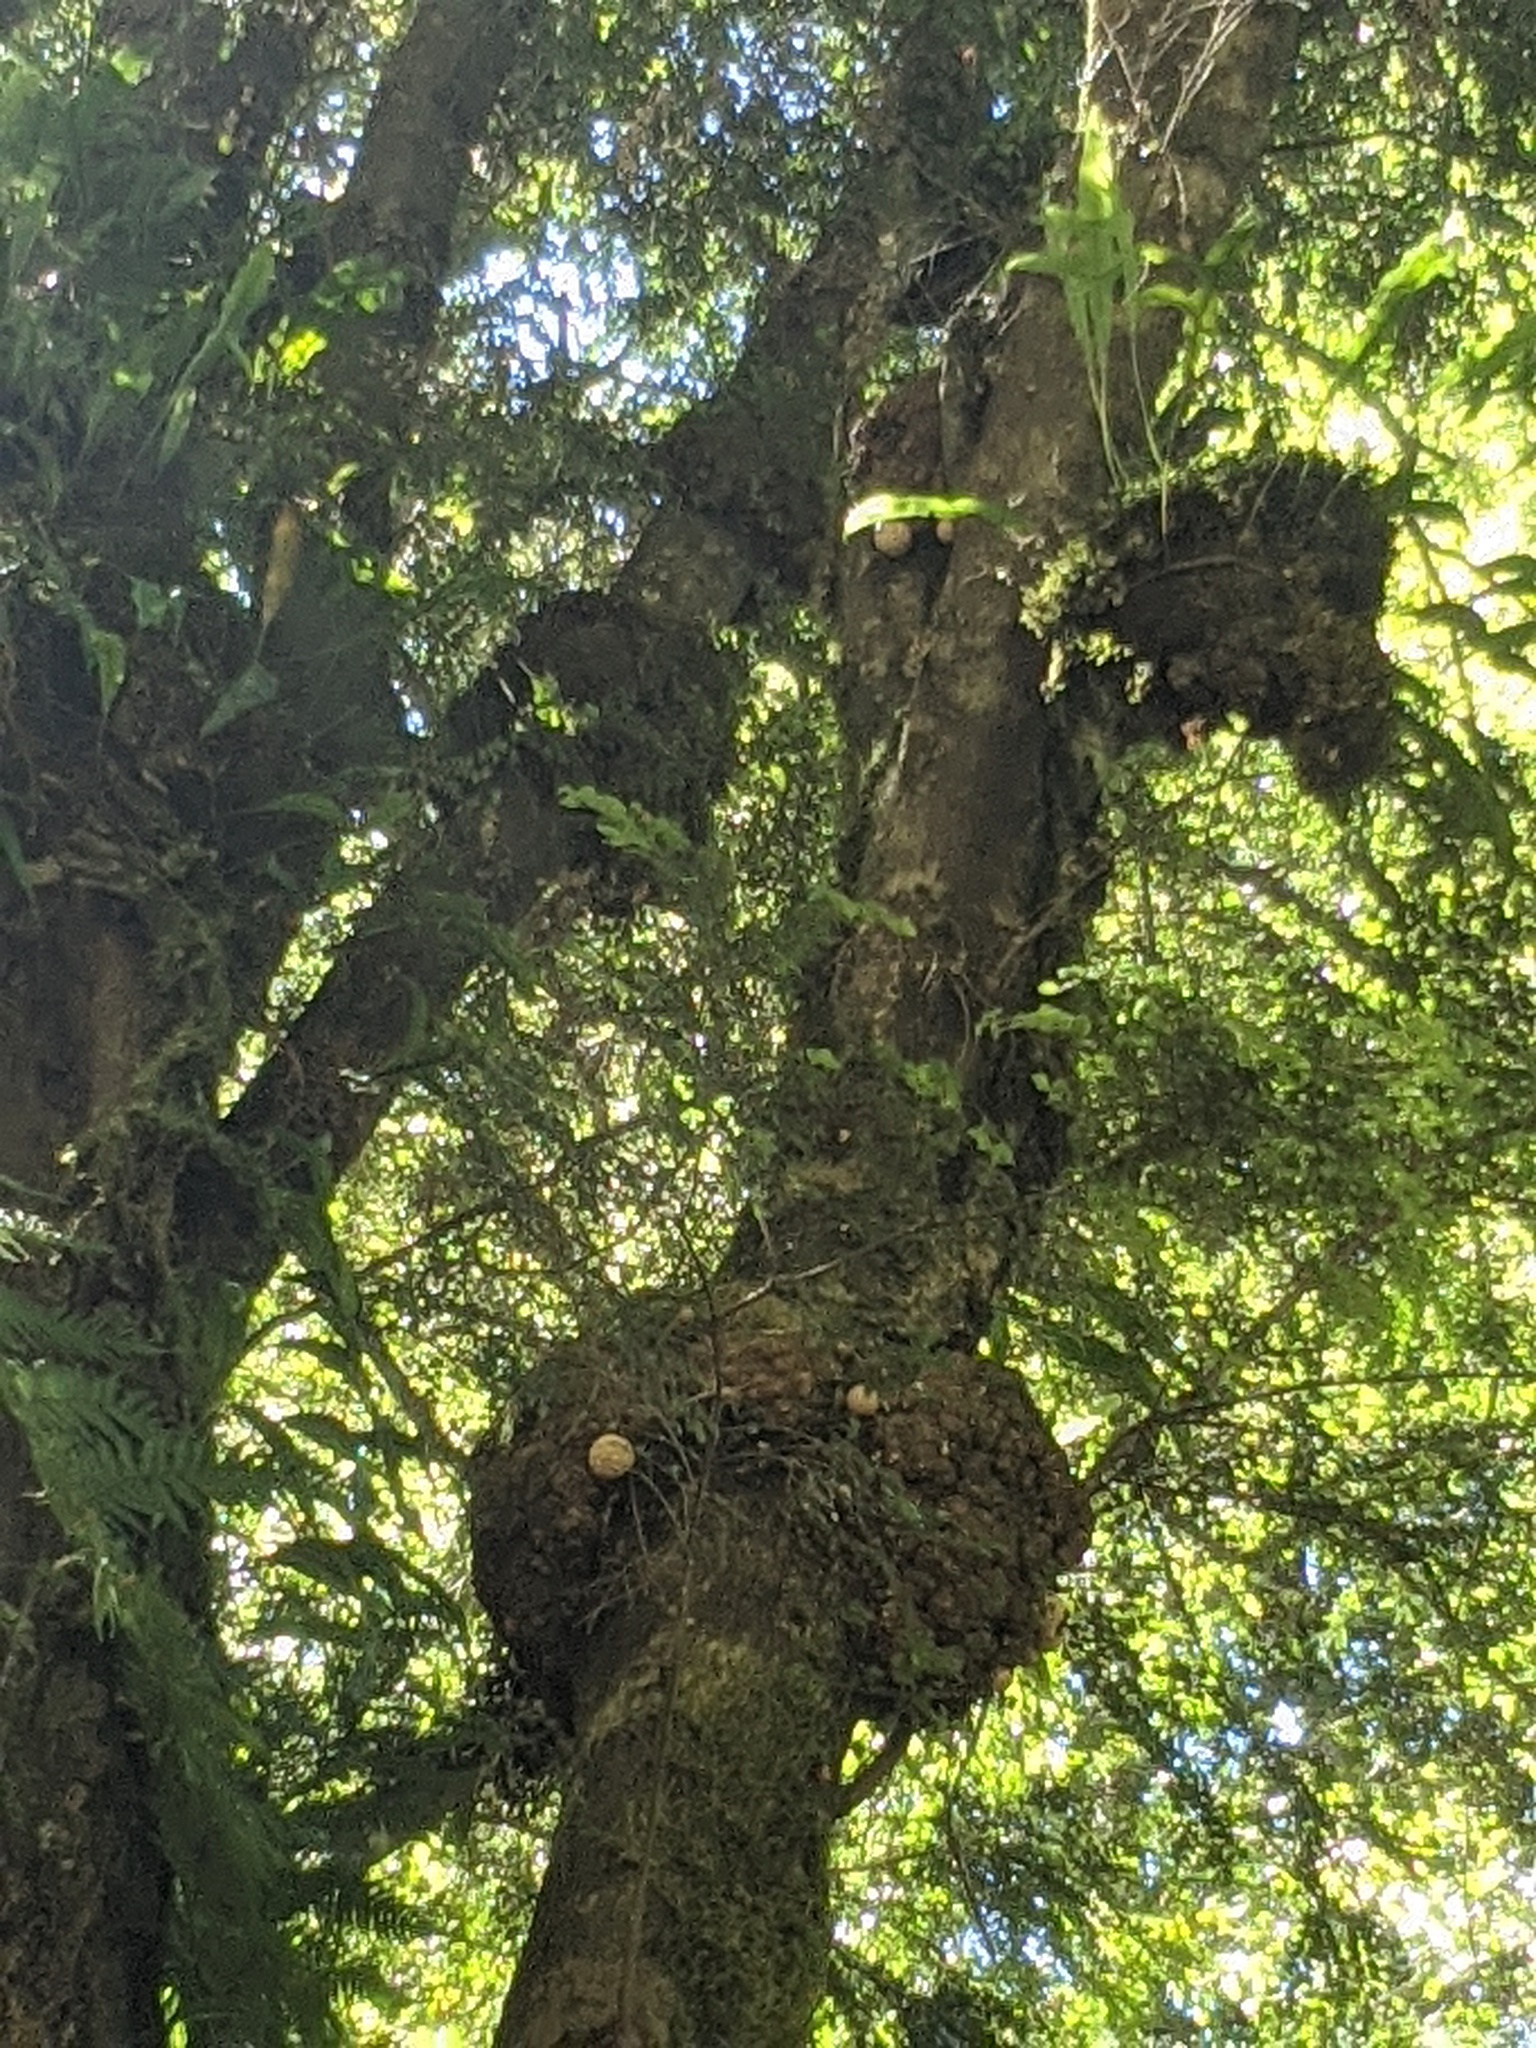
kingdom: Fungi
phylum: Ascomycota
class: Leotiomycetes
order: Cyttariales
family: Cyttariaceae
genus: Cyttaria
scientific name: Cyttaria gunnii
